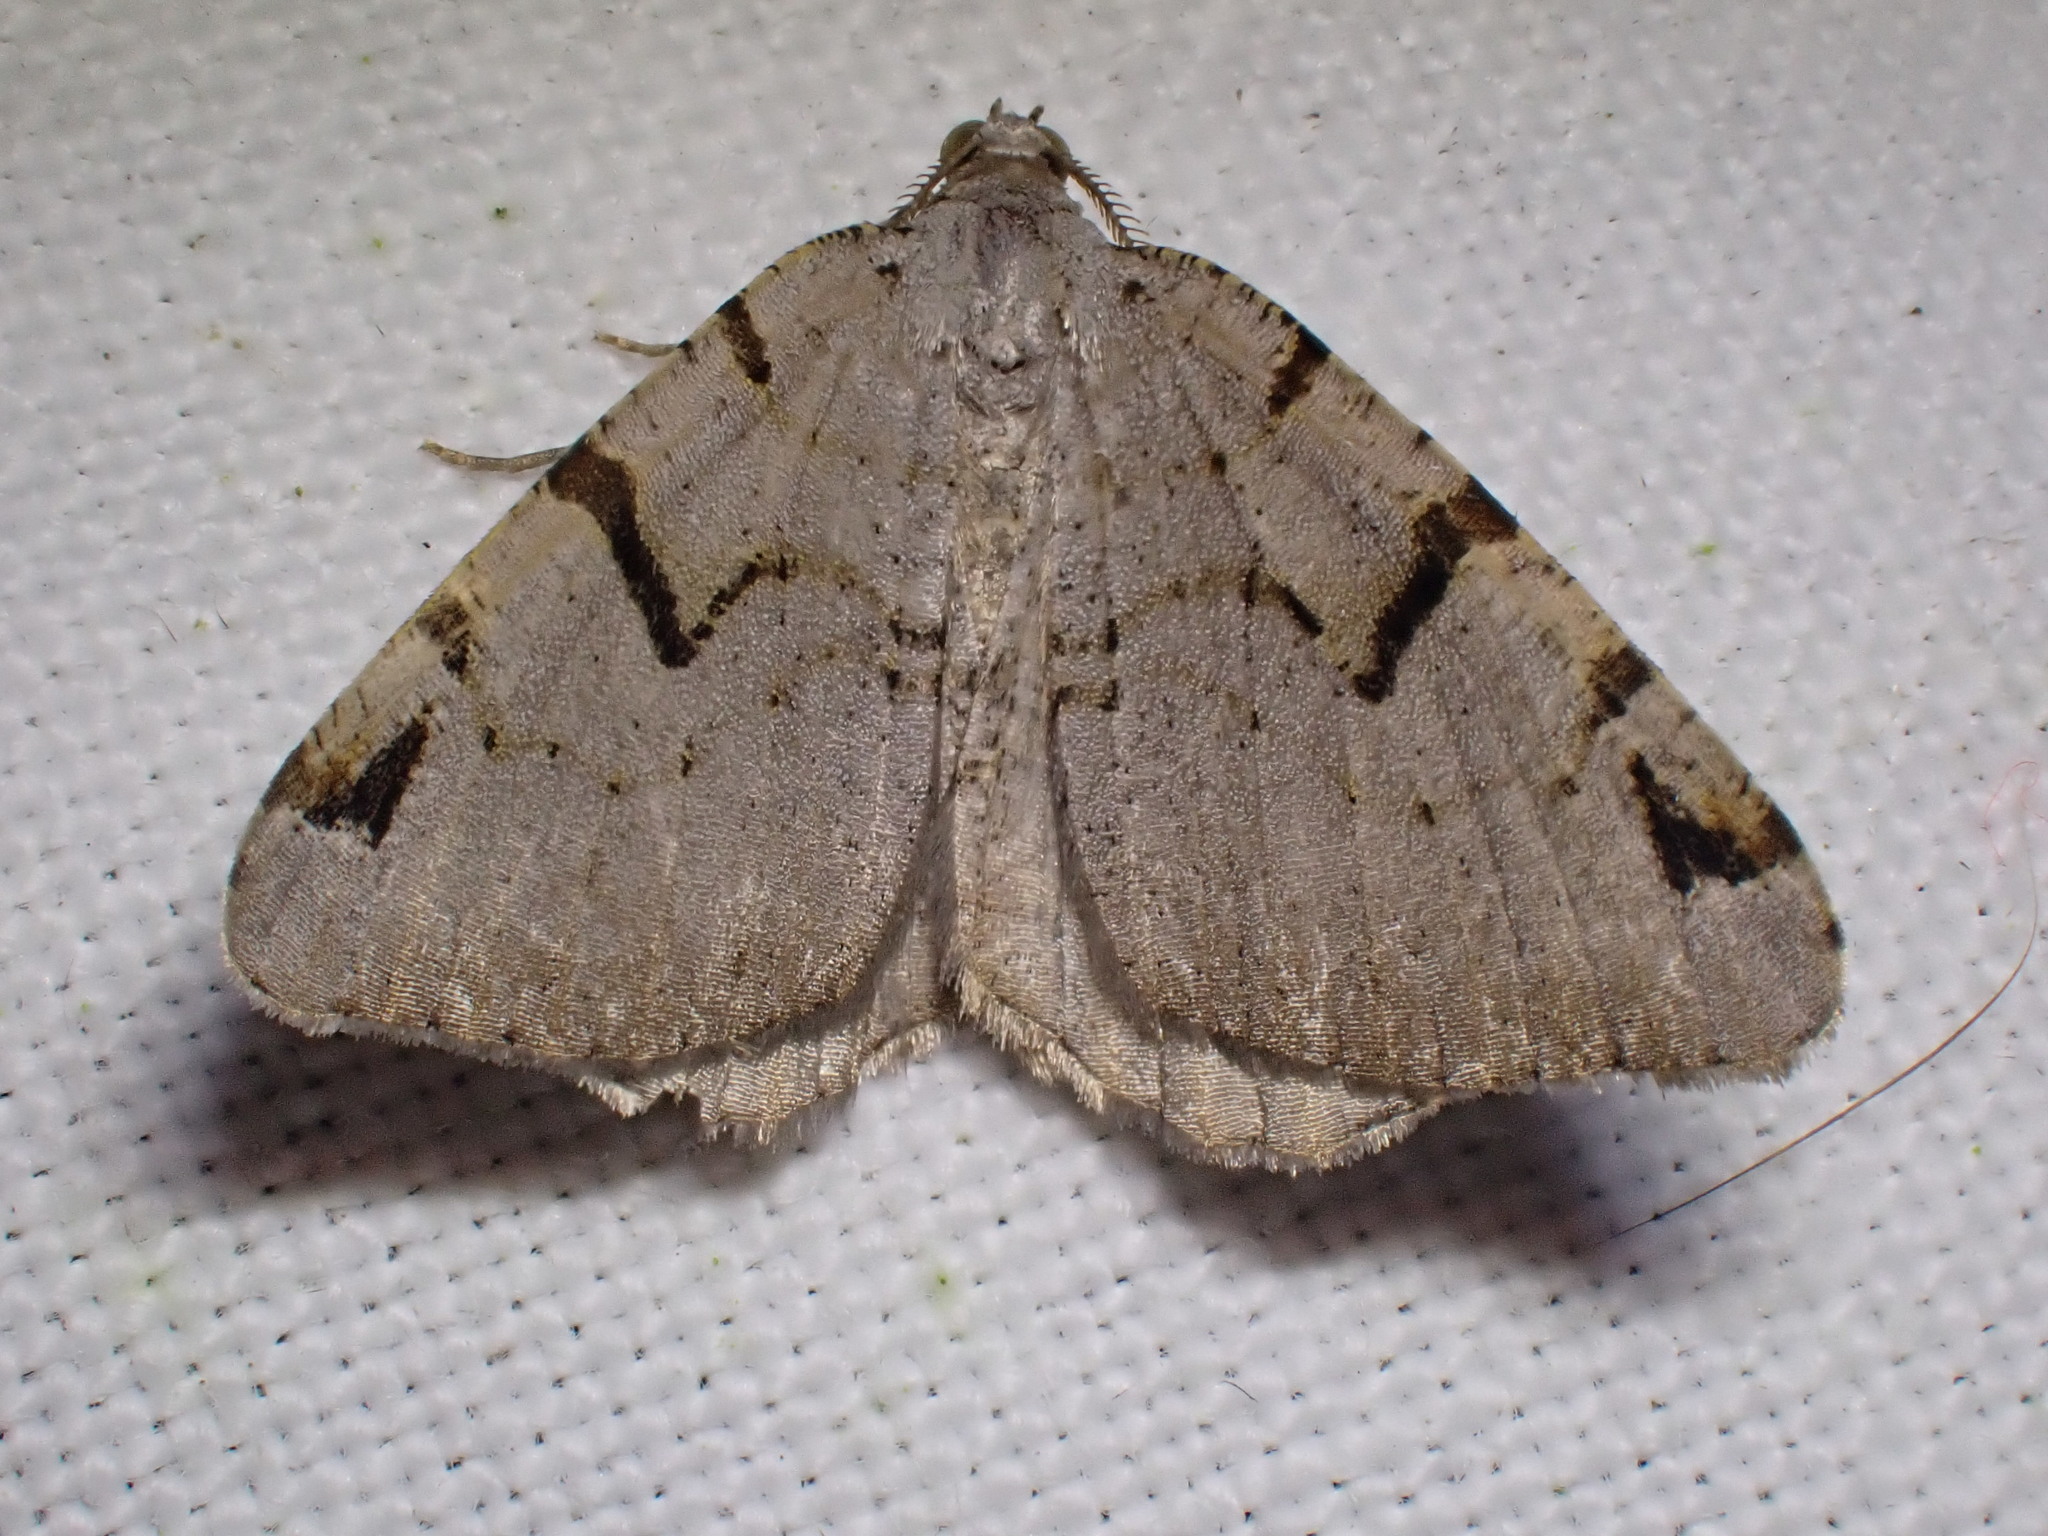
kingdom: Animalia
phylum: Arthropoda
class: Insecta
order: Lepidoptera
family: Geometridae
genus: Macaria
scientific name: Macaria wauaria
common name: V-moth
